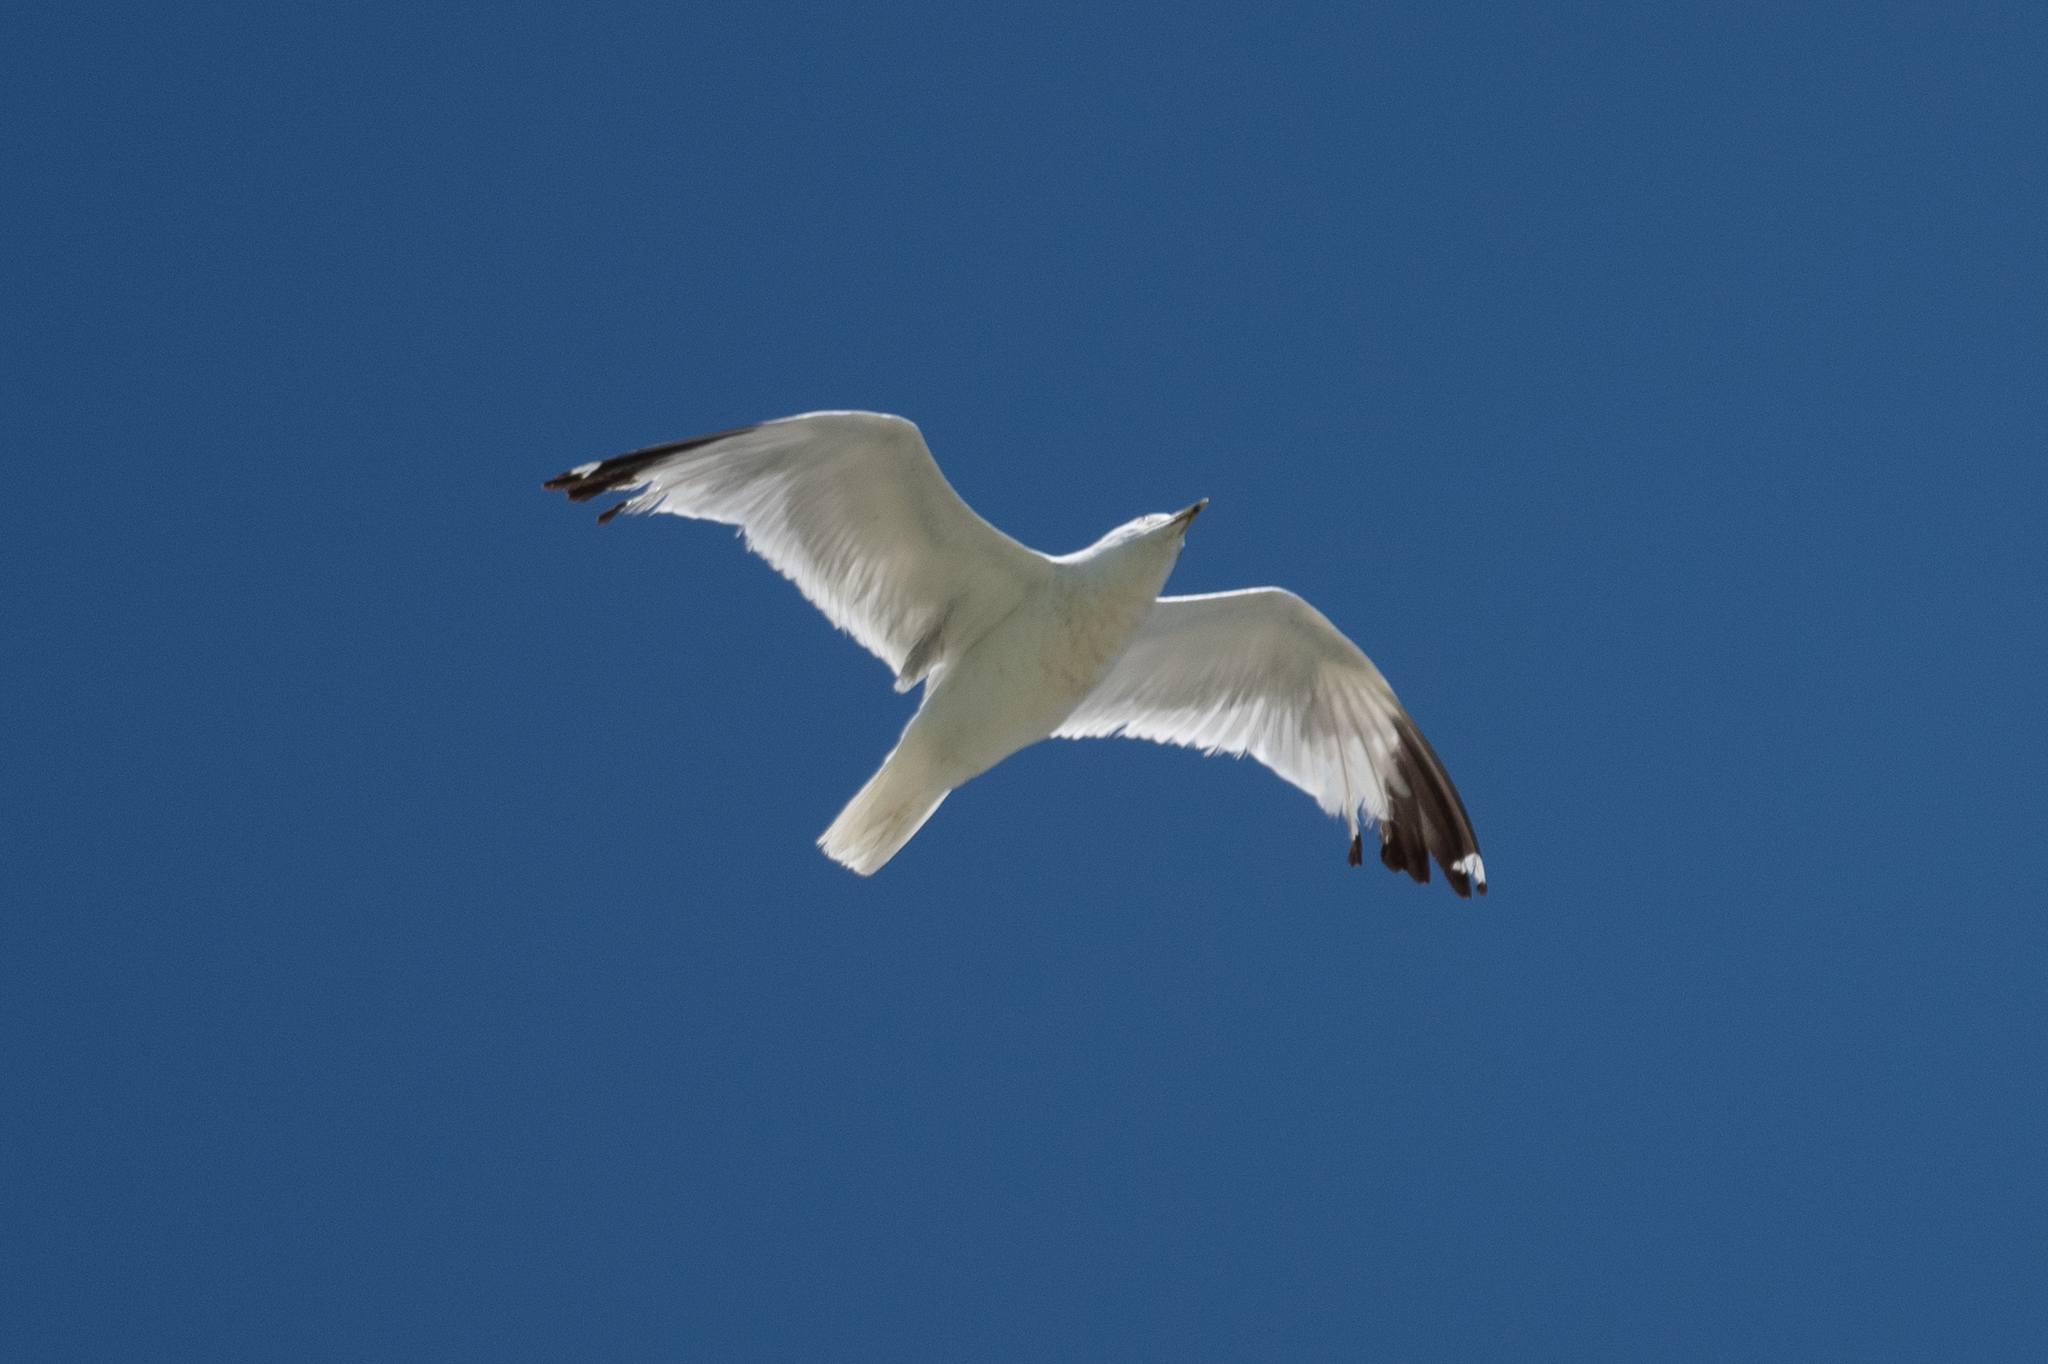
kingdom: Animalia
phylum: Chordata
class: Aves
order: Charadriiformes
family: Laridae
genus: Larus
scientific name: Larus delawarensis
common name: Ring-billed gull
